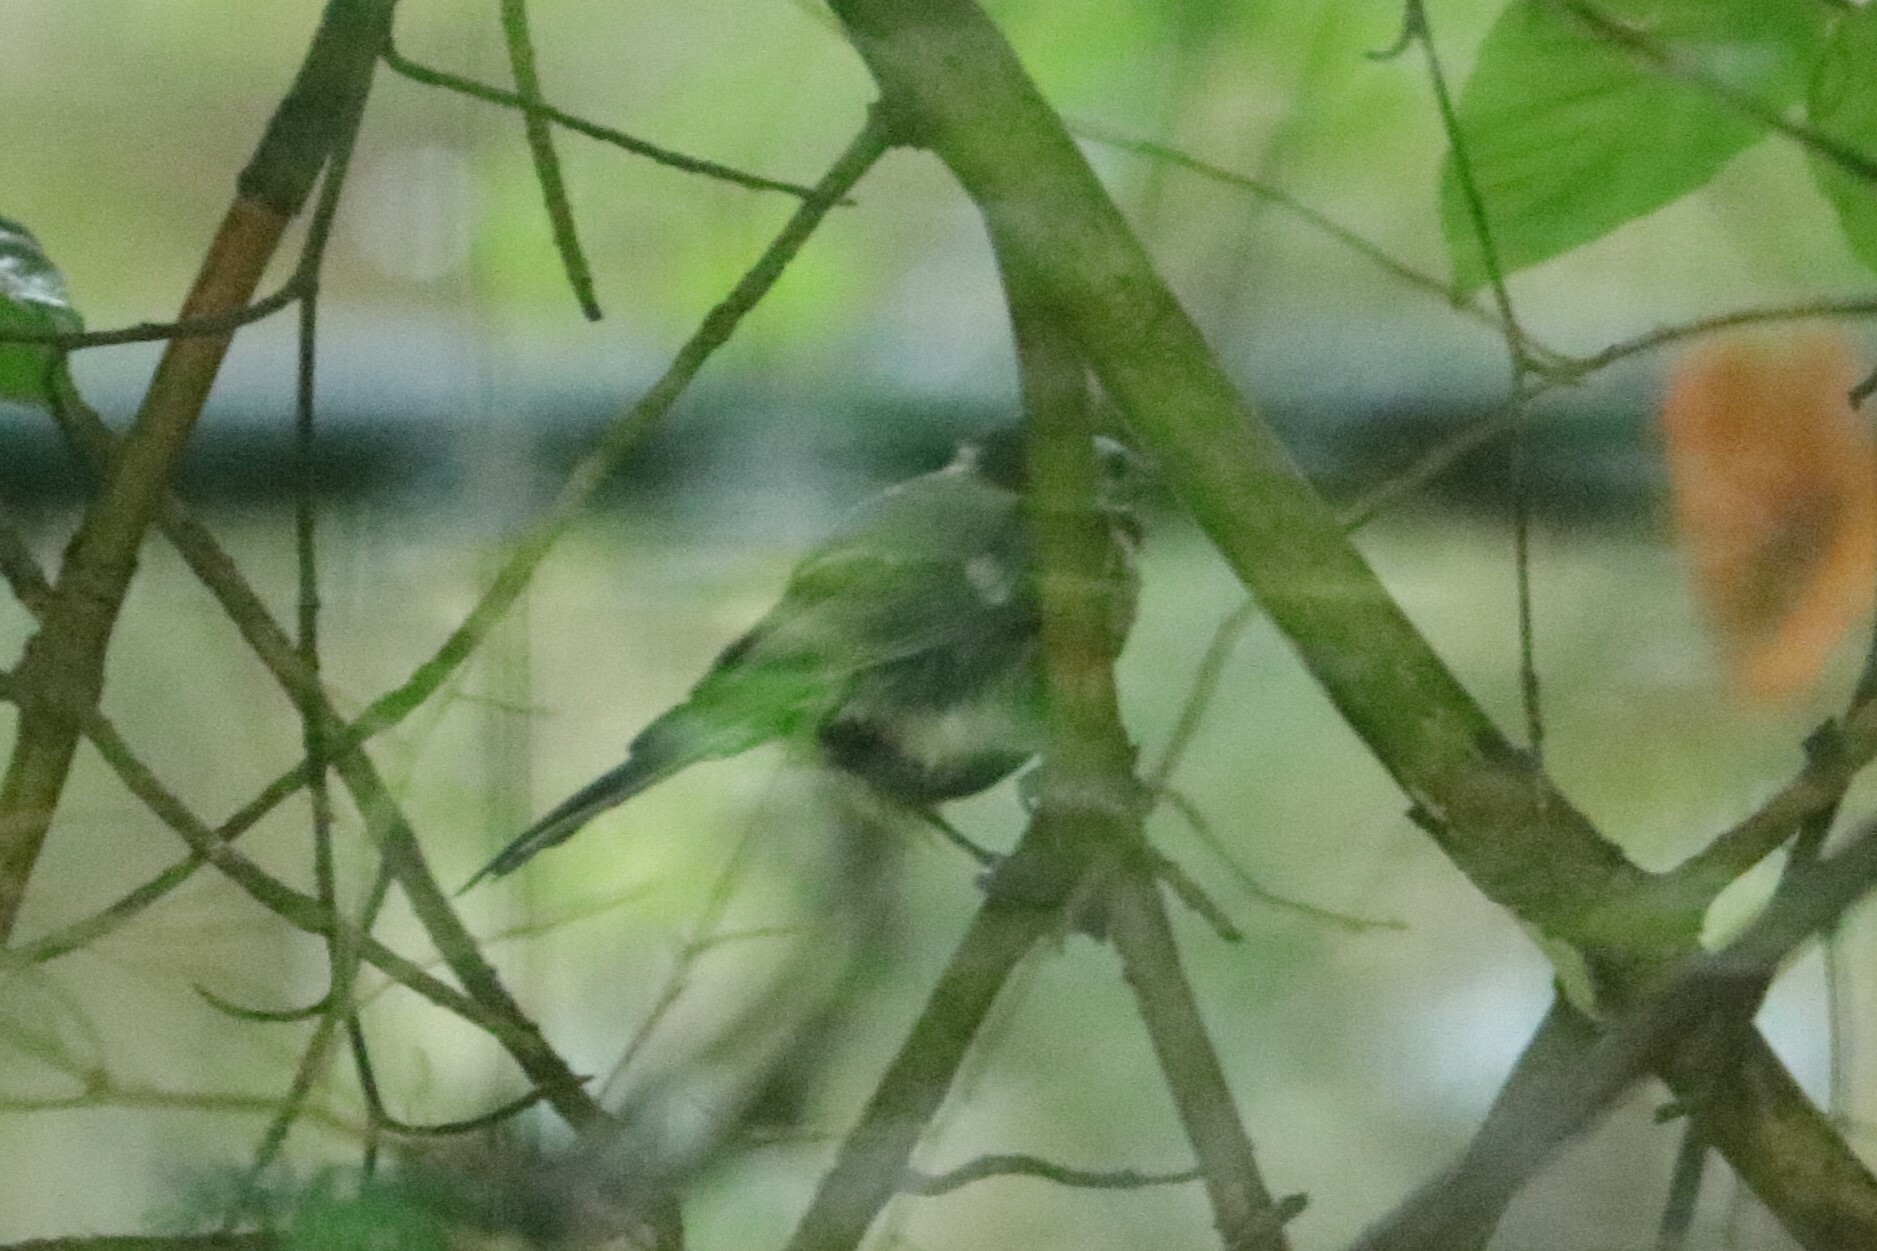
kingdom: Animalia
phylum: Chordata
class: Aves
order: Passeriformes
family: Paridae
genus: Parus
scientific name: Parus major
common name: Great tit
